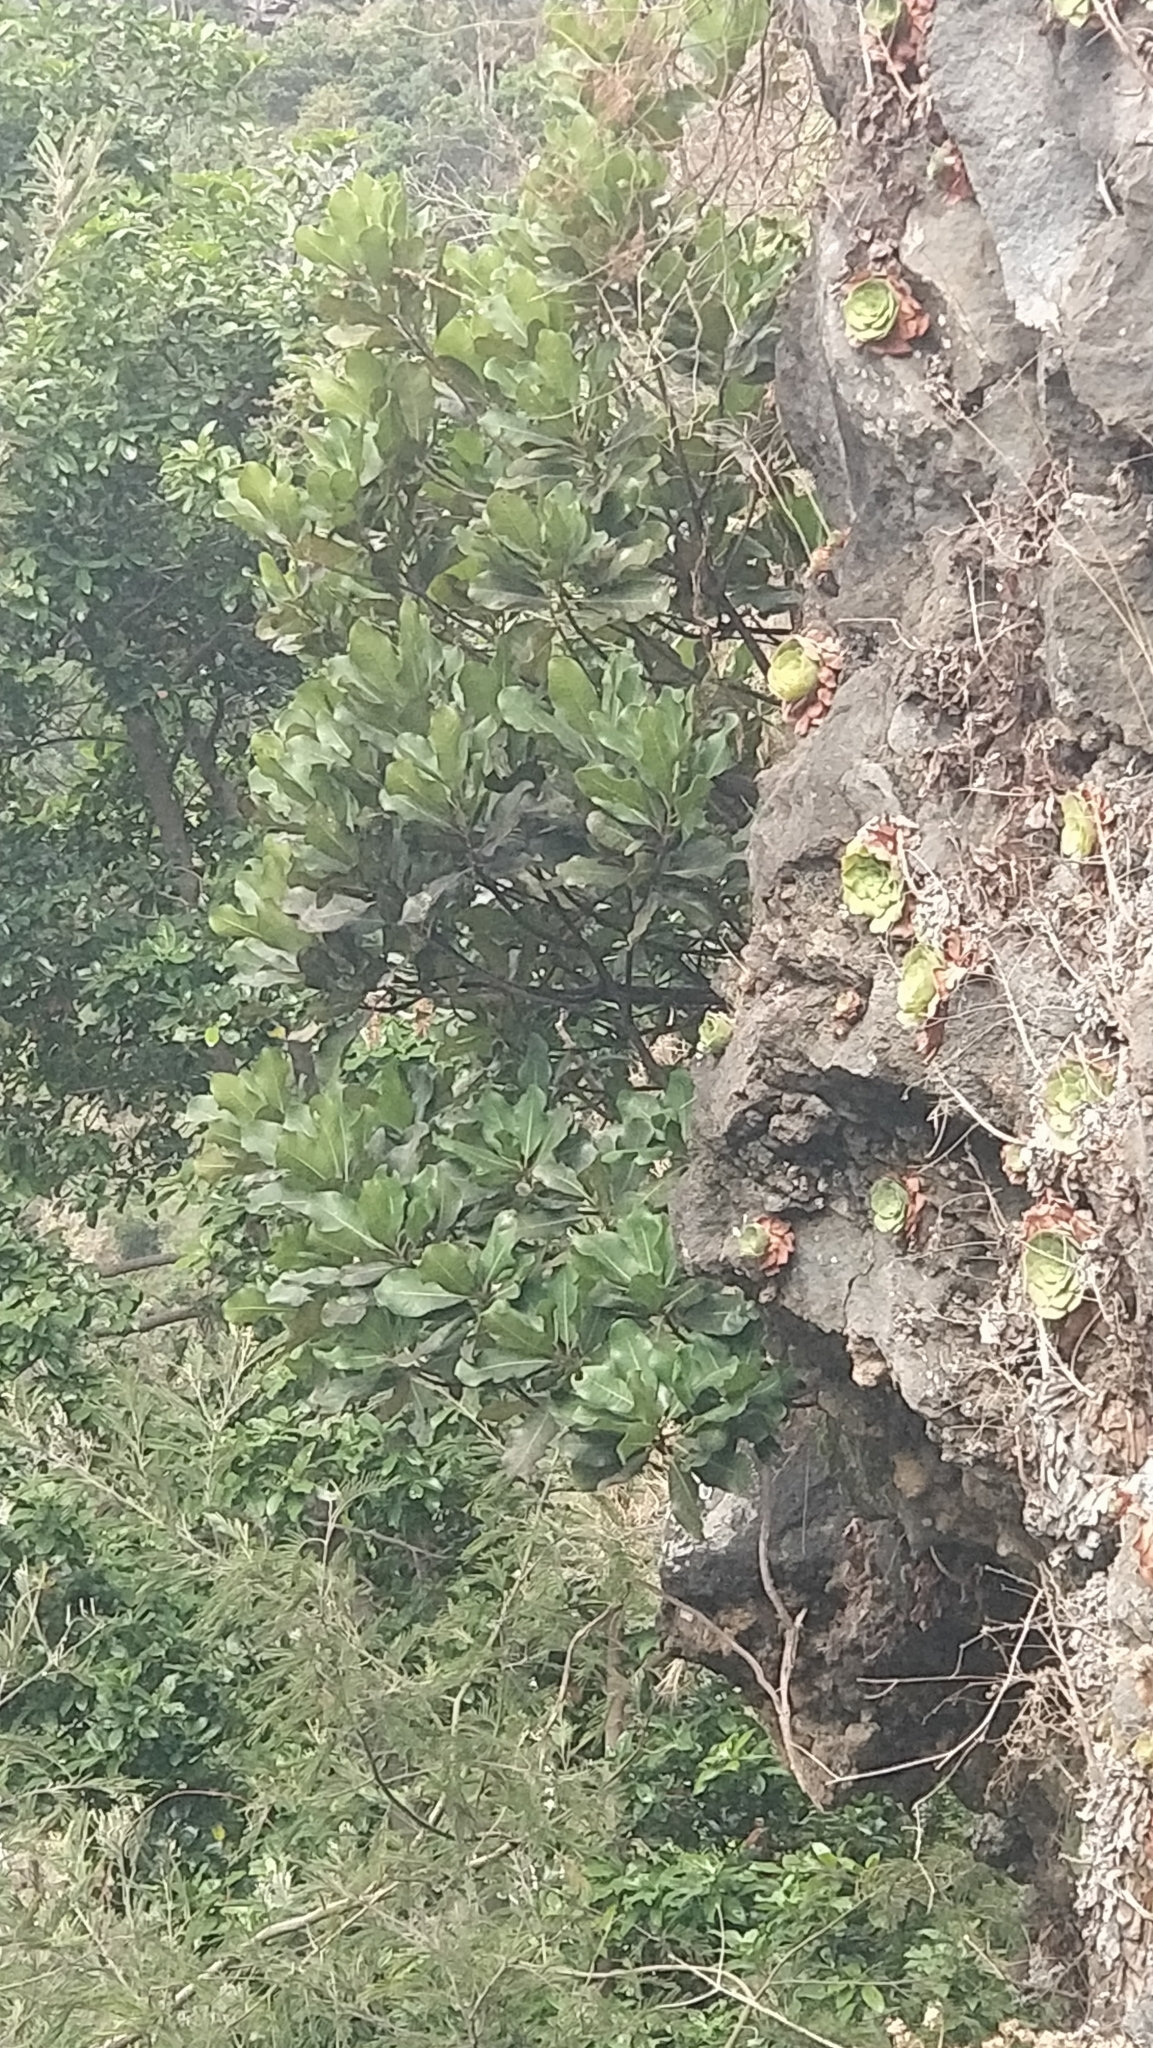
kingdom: Plantae
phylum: Tracheophyta
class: Magnoliopsida
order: Ericales
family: Sapotaceae
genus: Sideroxylon
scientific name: Sideroxylon mirmulans
